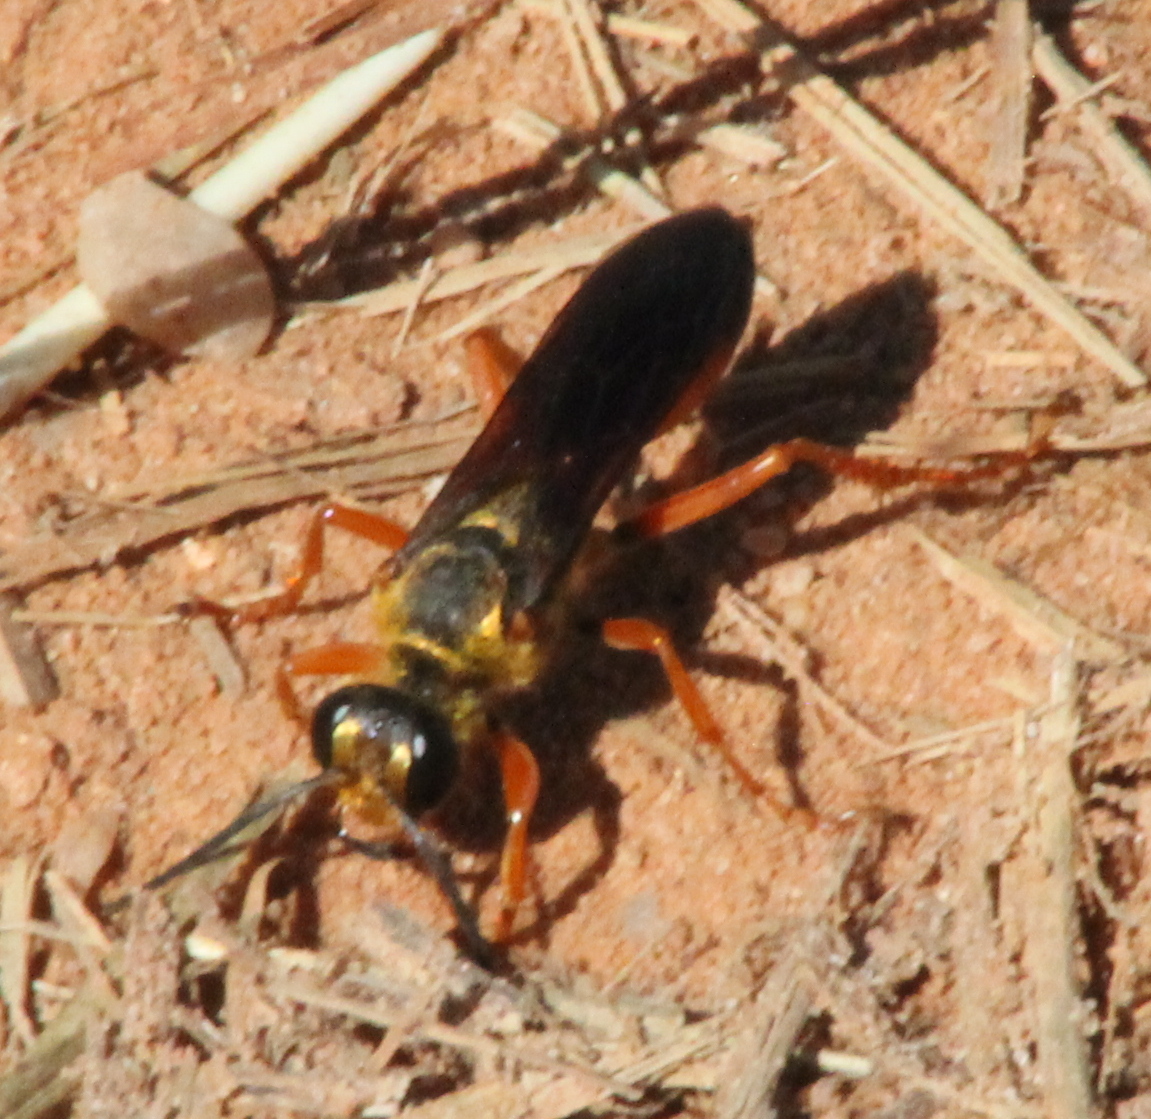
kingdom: Animalia
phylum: Arthropoda
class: Insecta
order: Hymenoptera
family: Sphecidae
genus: Sphex
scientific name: Sphex ichneumoneus
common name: Great golden digger wasp
